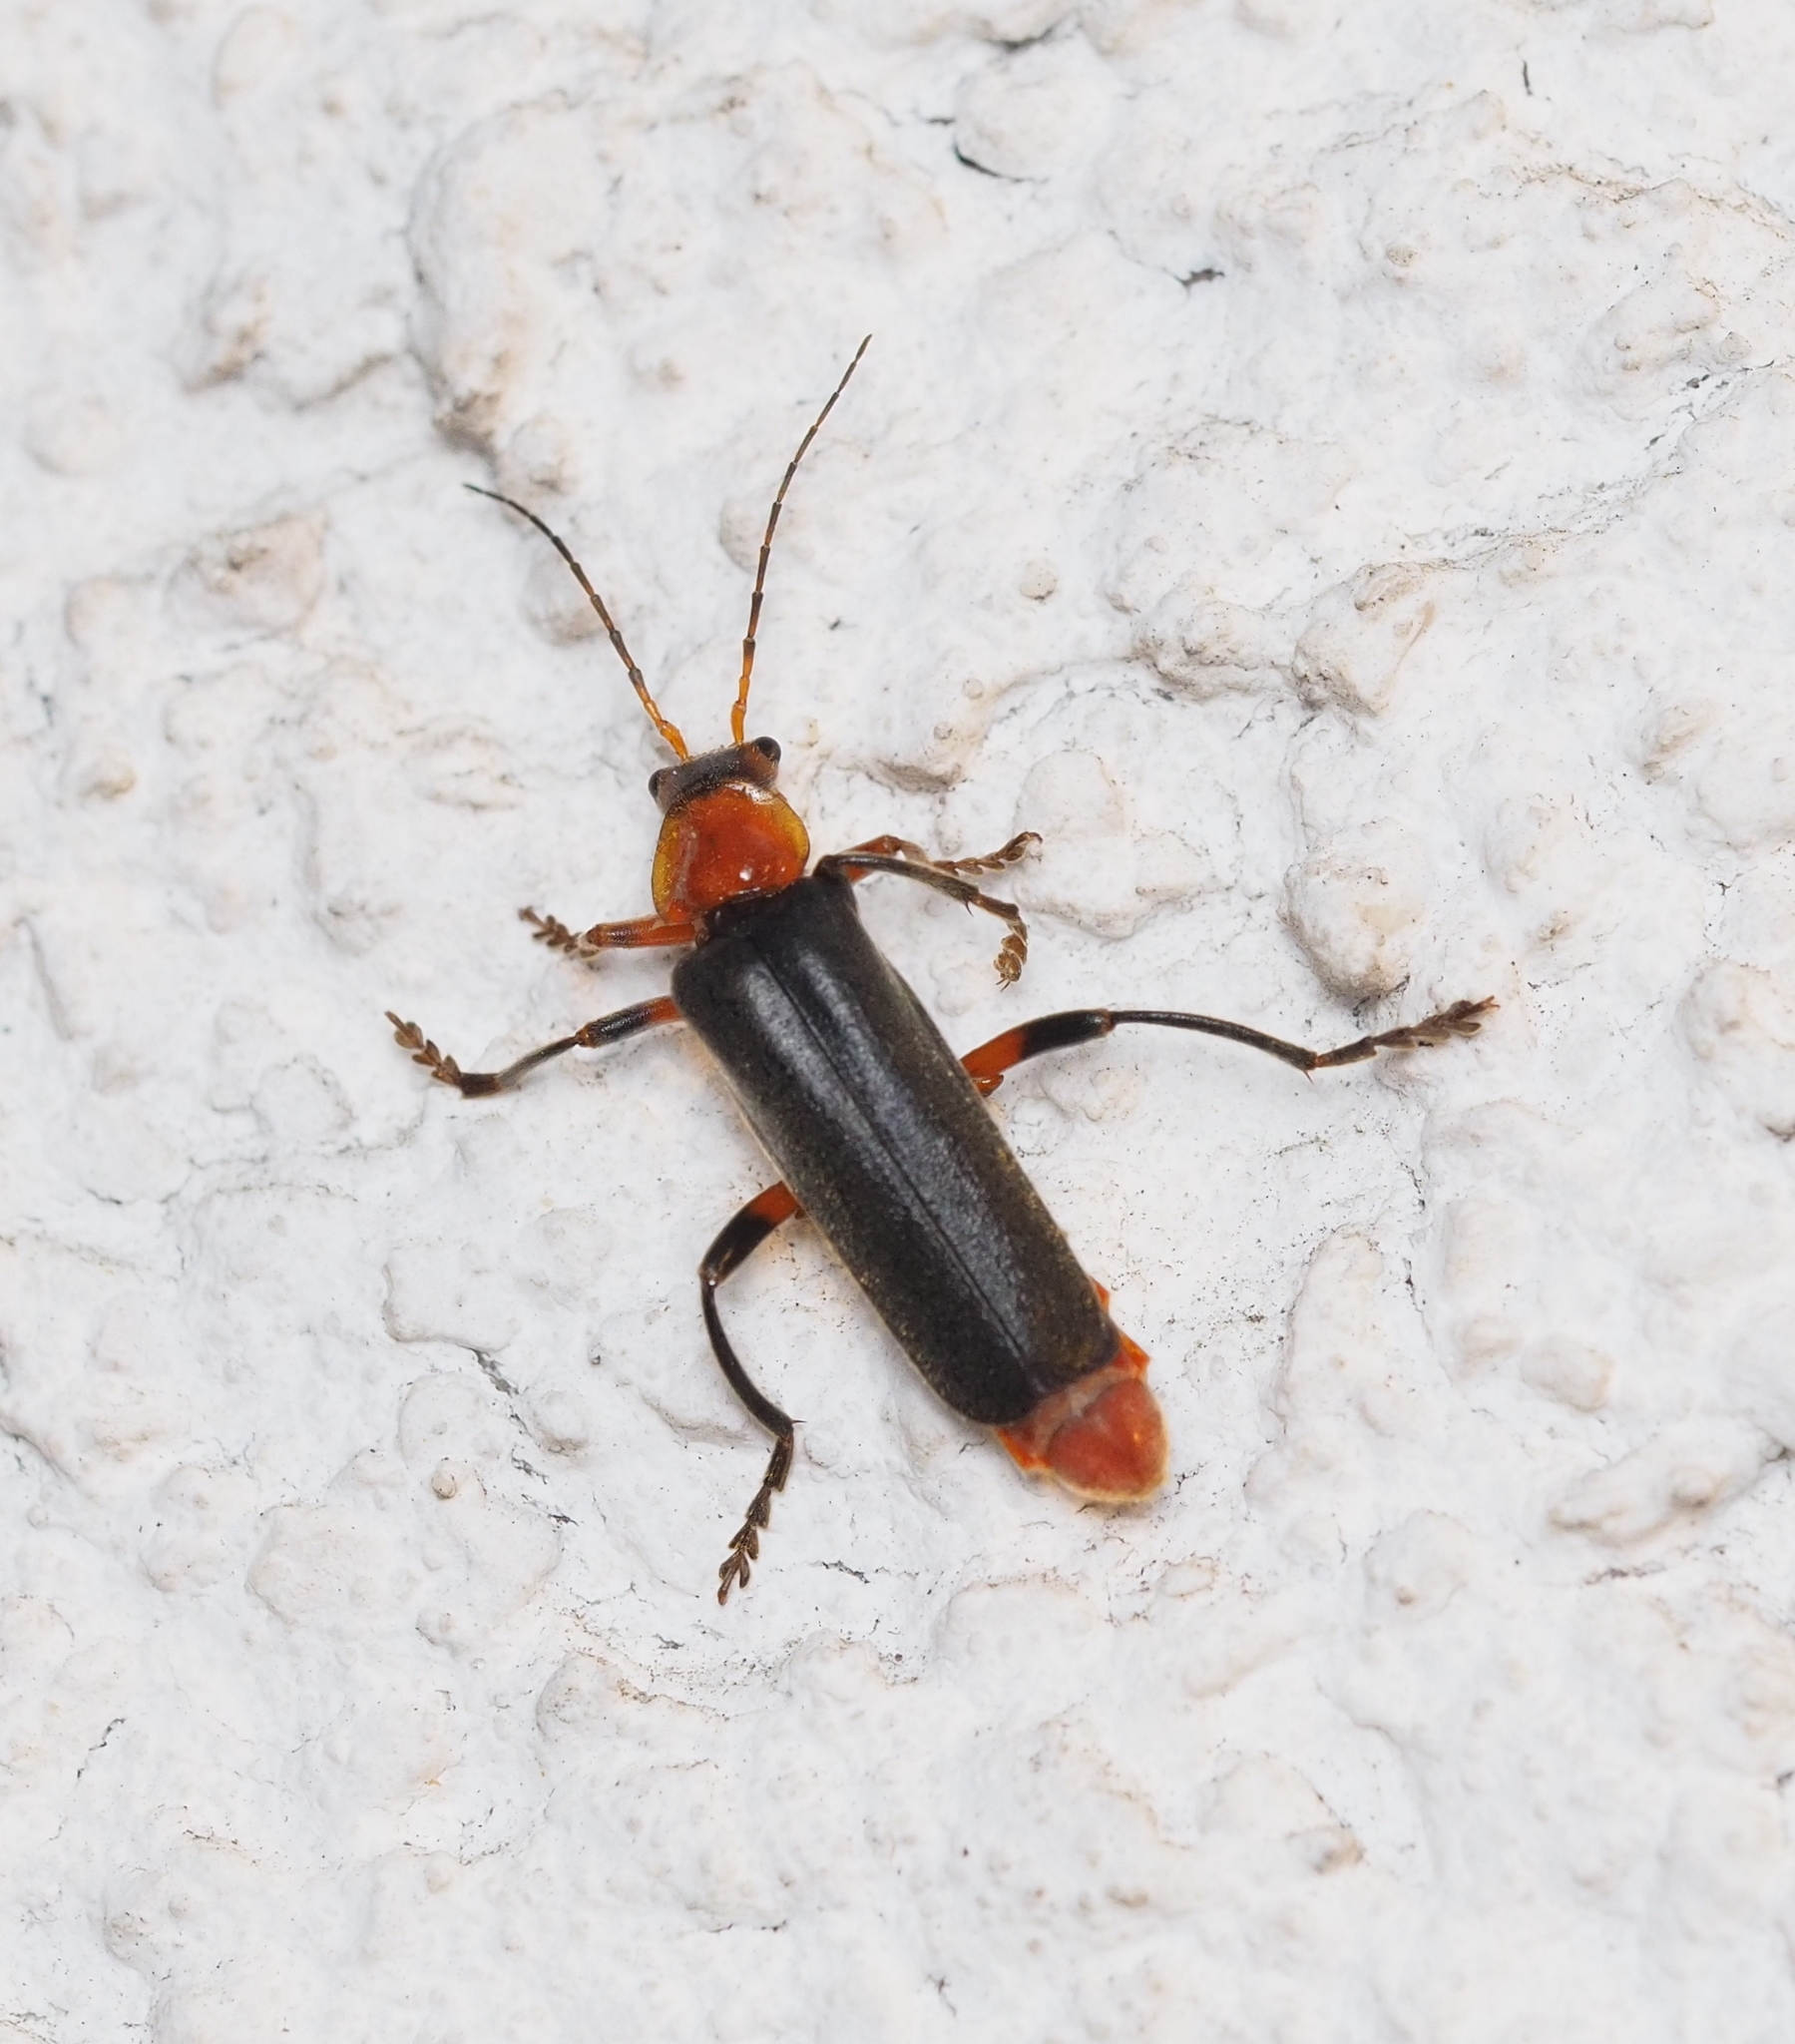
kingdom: Animalia
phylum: Arthropoda
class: Insecta
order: Coleoptera
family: Cantharidae
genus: Cantharis
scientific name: Cantharis livida
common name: Livid soldier beetle
